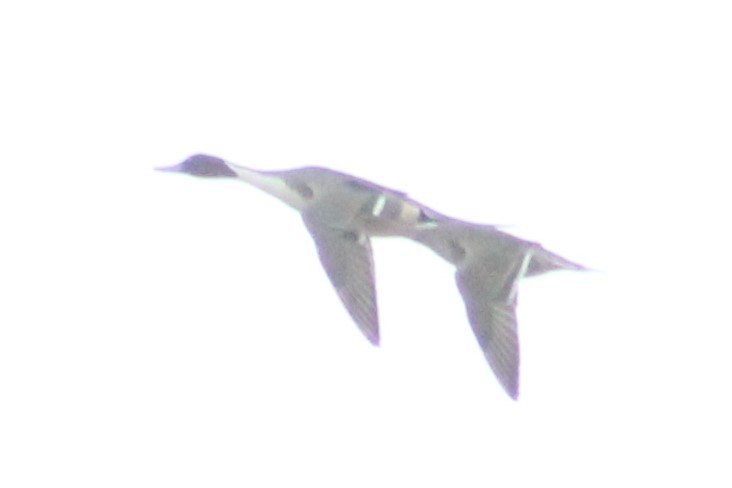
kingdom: Animalia
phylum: Chordata
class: Aves
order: Anseriformes
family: Anatidae
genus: Anas
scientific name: Anas acuta
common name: Northern pintail
